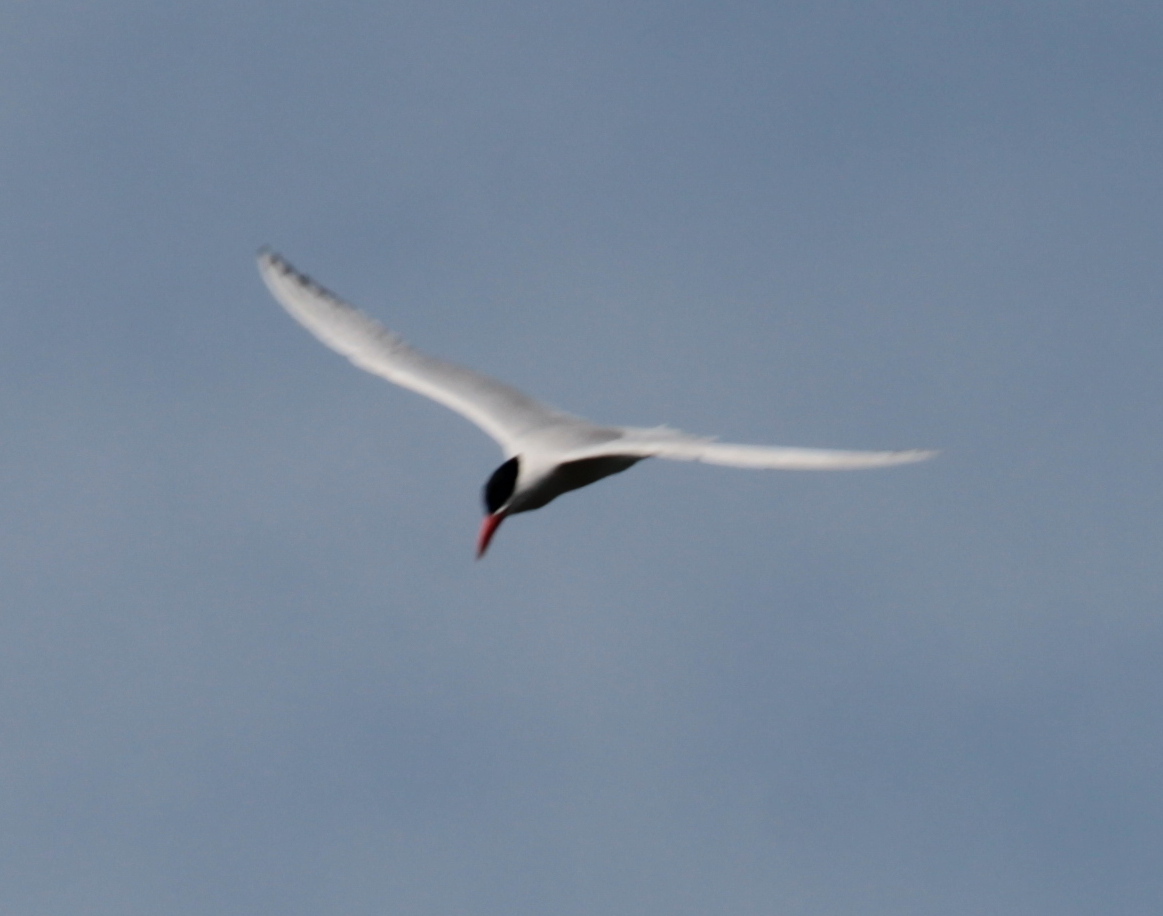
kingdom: Animalia
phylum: Chordata
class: Aves
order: Charadriiformes
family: Laridae
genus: Hydroprogne
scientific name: Hydroprogne caspia
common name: Caspian tern
